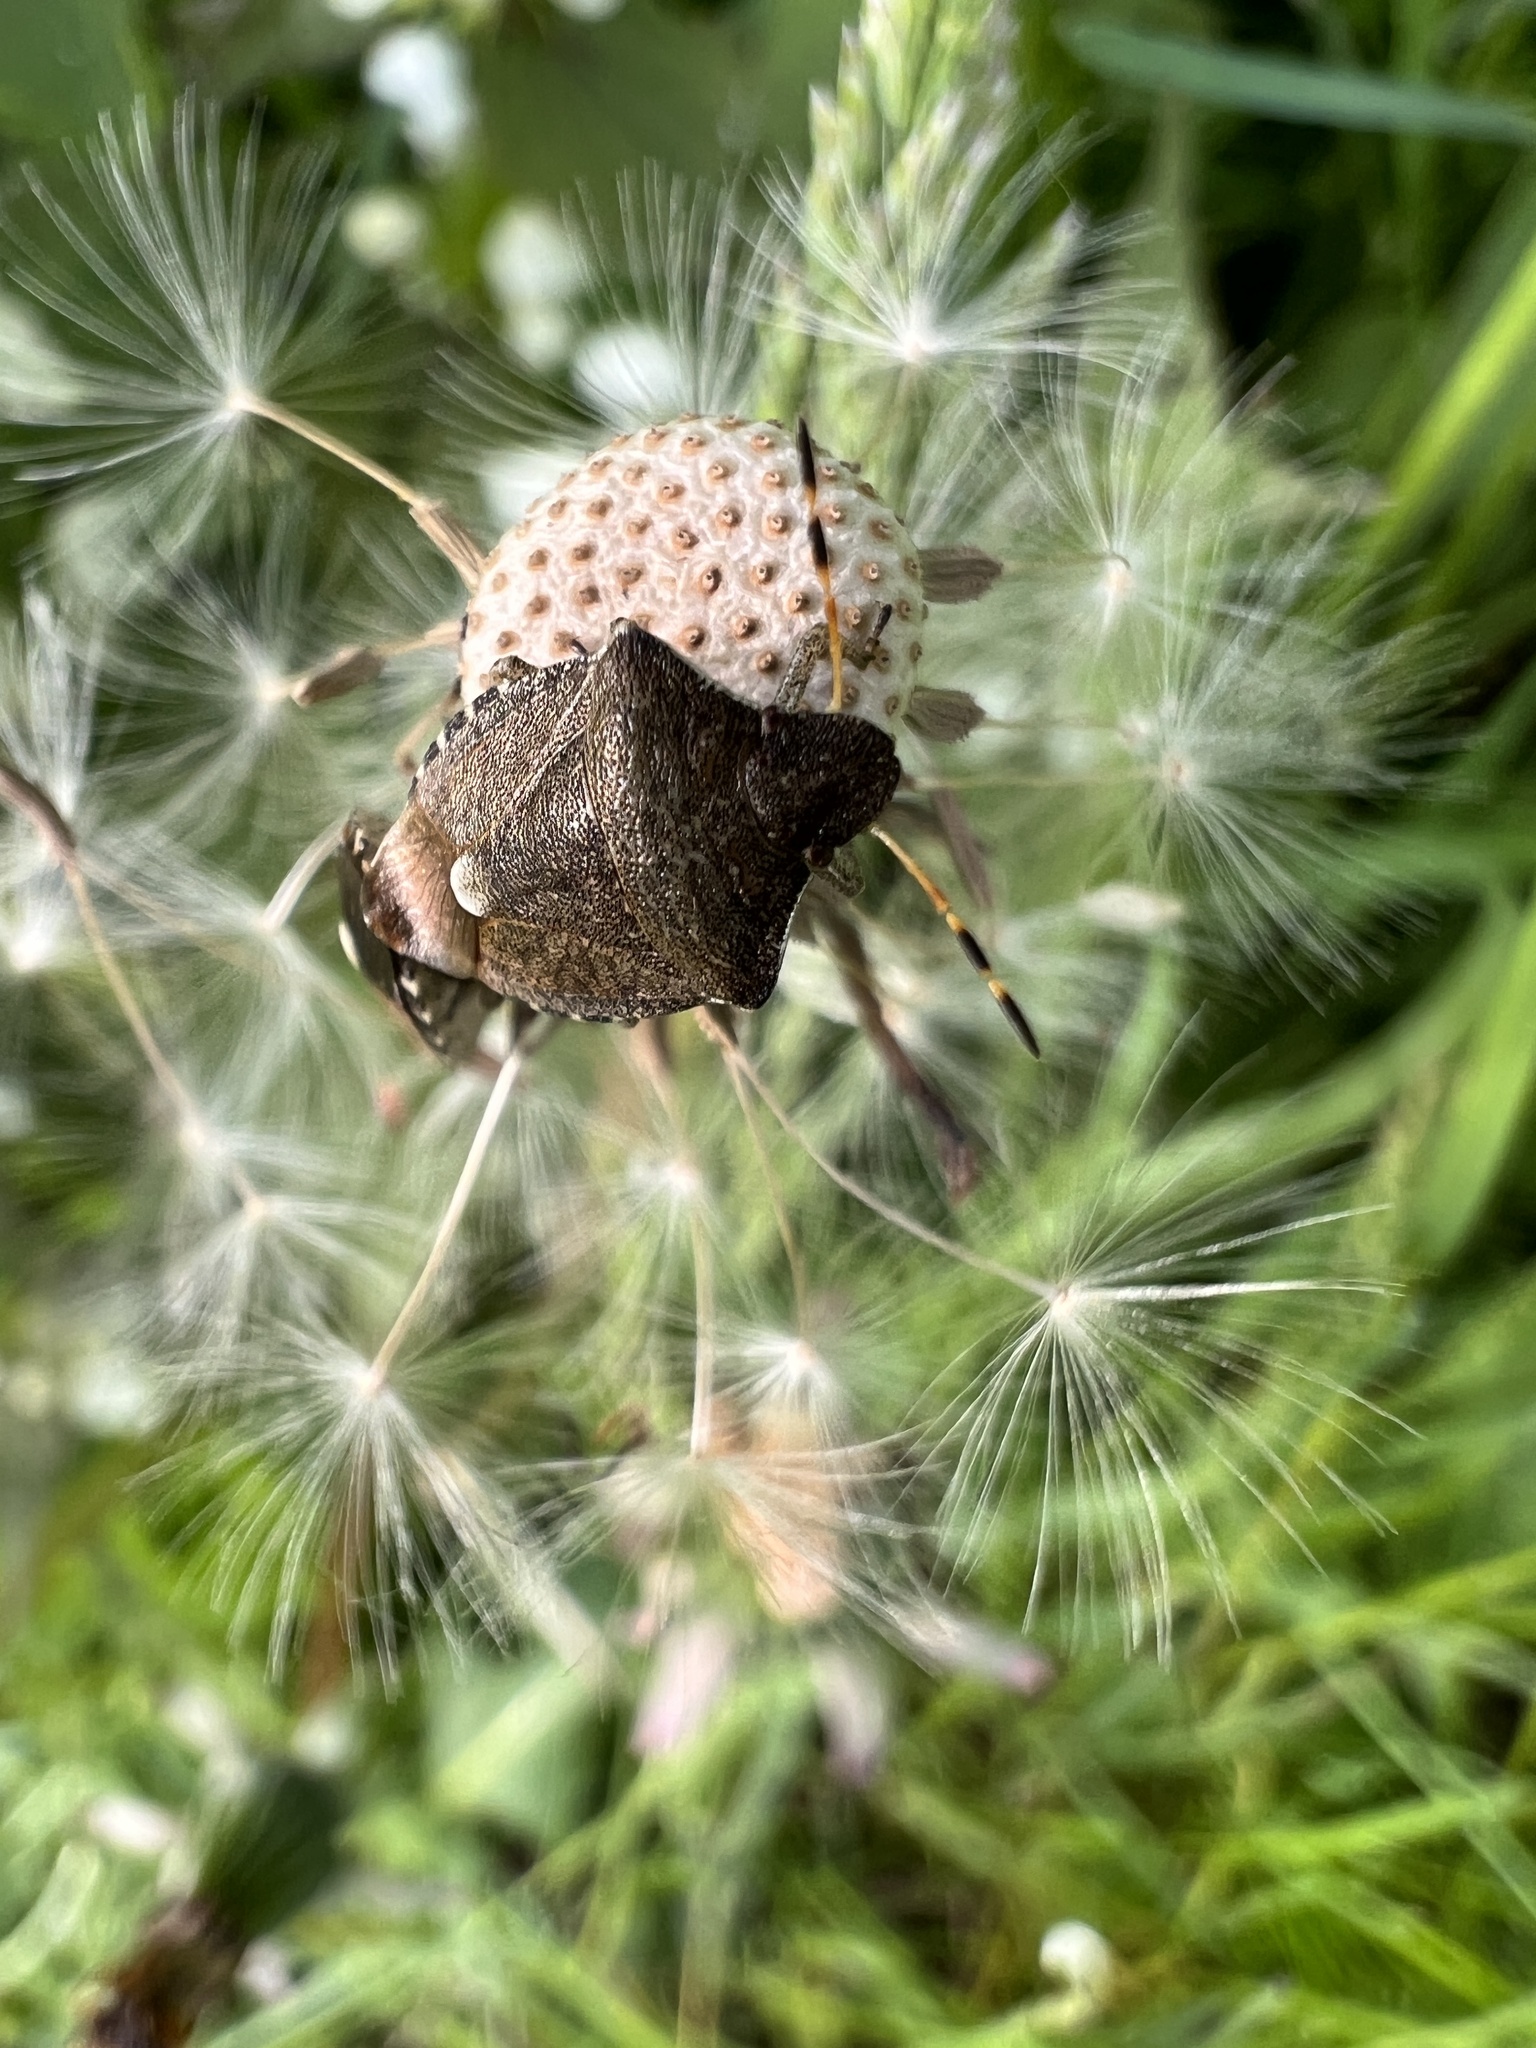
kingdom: Animalia
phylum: Arthropoda
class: Insecta
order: Hemiptera
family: Pentatomidae
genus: Holcostethus
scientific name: Holcostethus strictus
